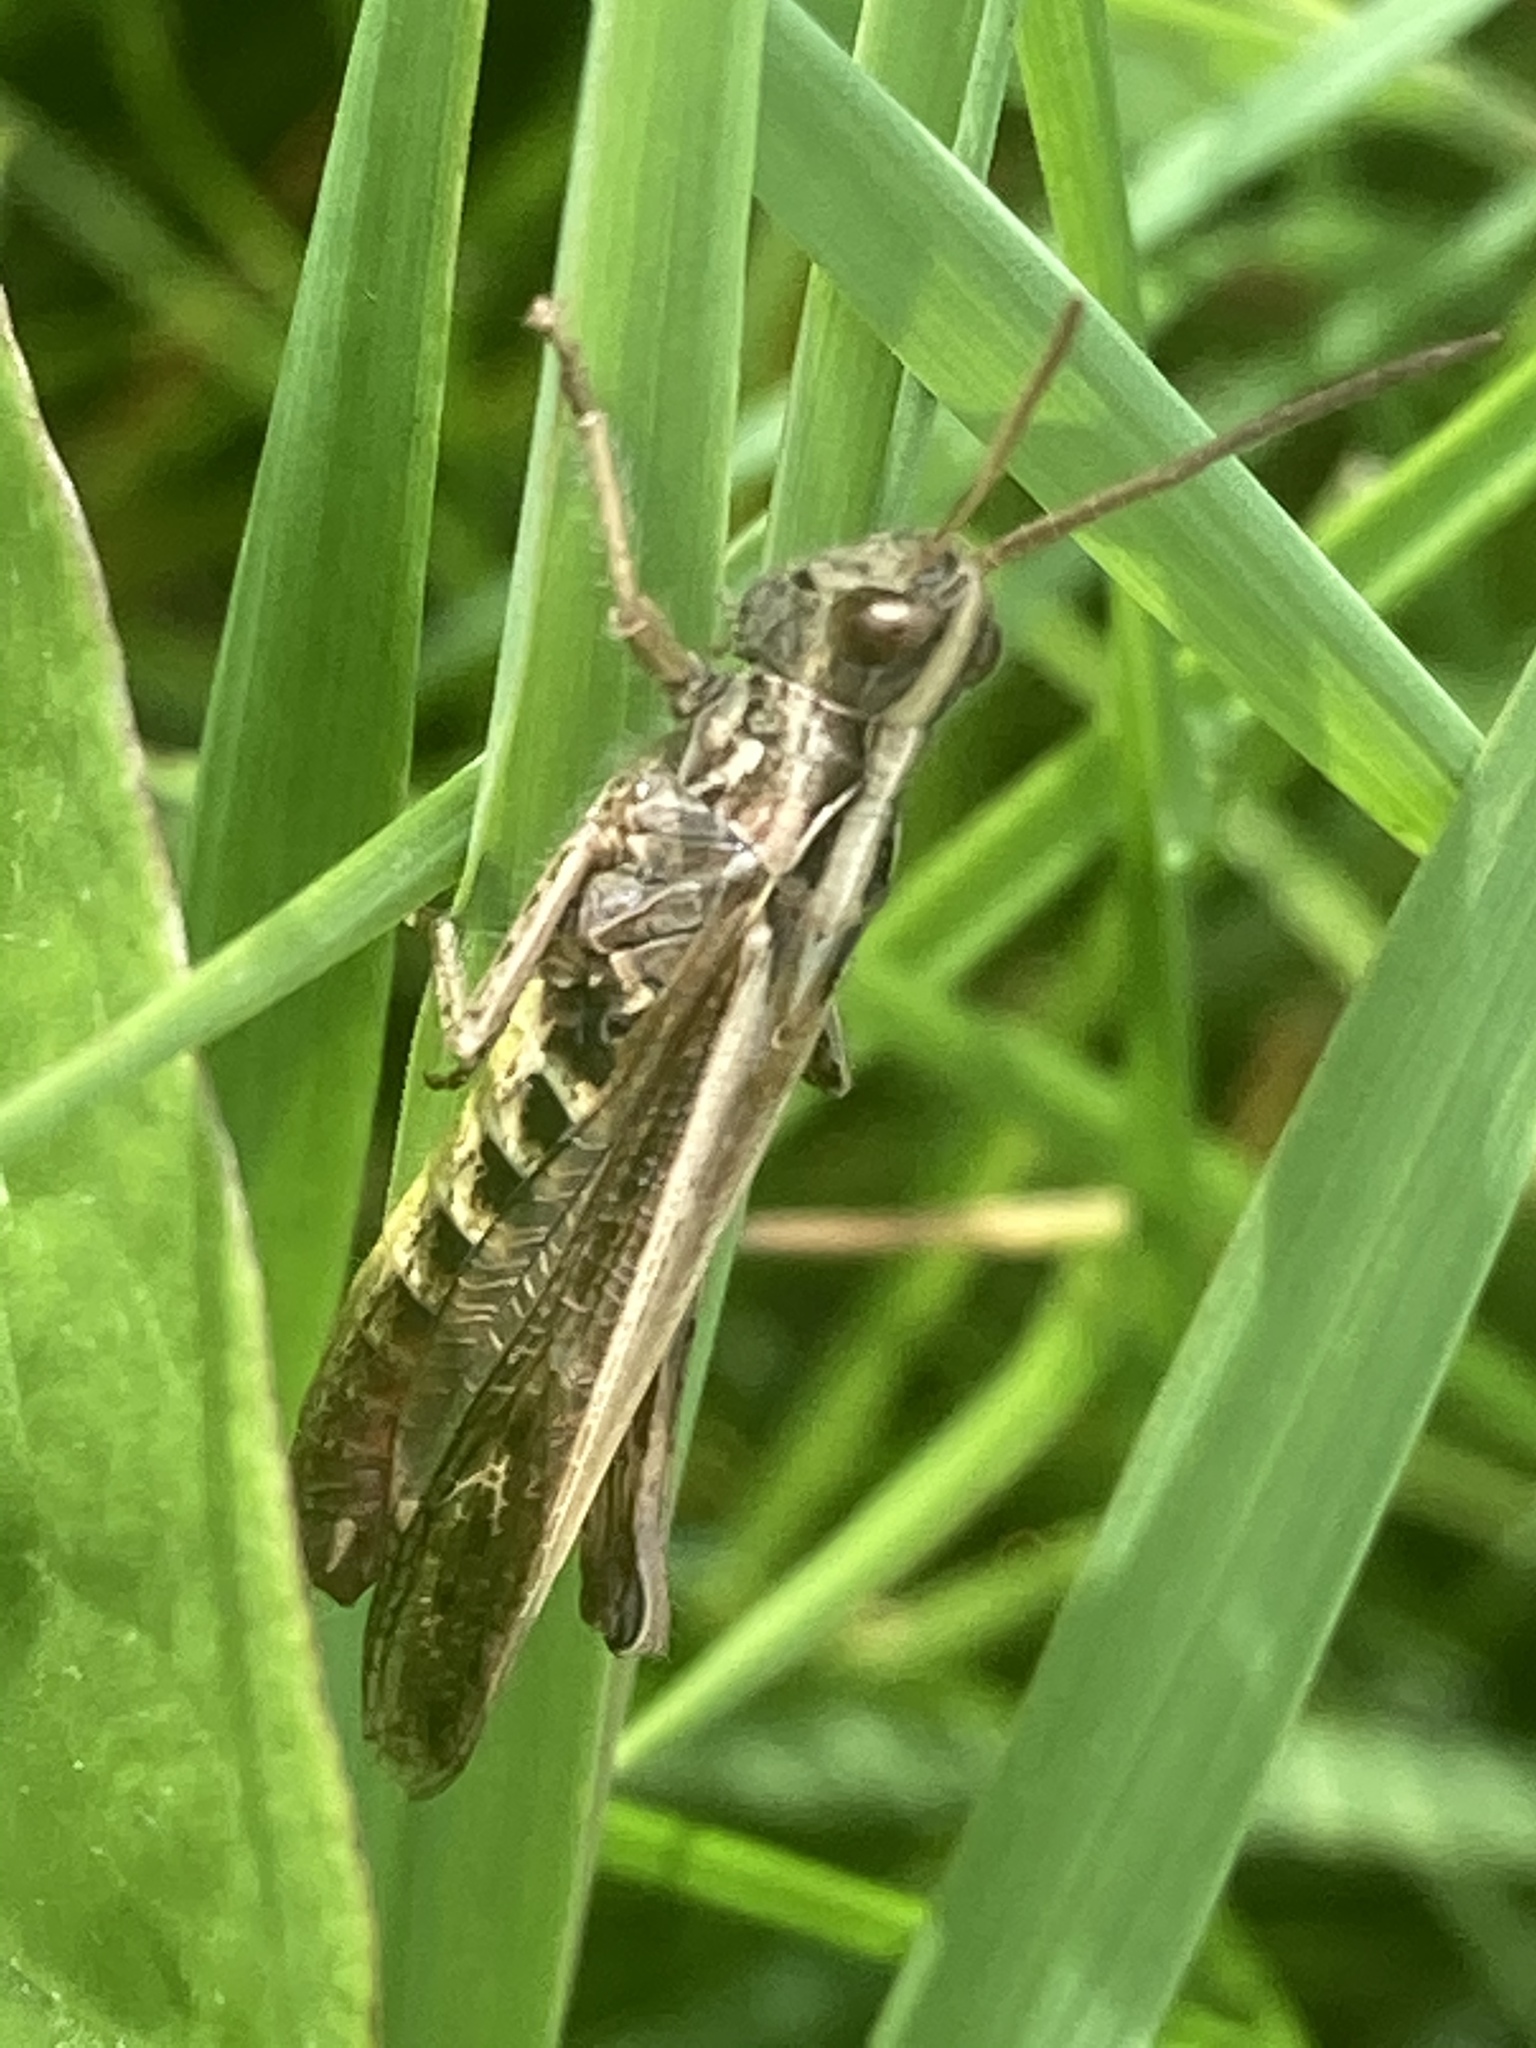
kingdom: Animalia
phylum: Arthropoda
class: Insecta
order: Orthoptera
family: Acrididae
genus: Chorthippus
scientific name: Chorthippus biguttulus
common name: Bow-winged grasshopper
